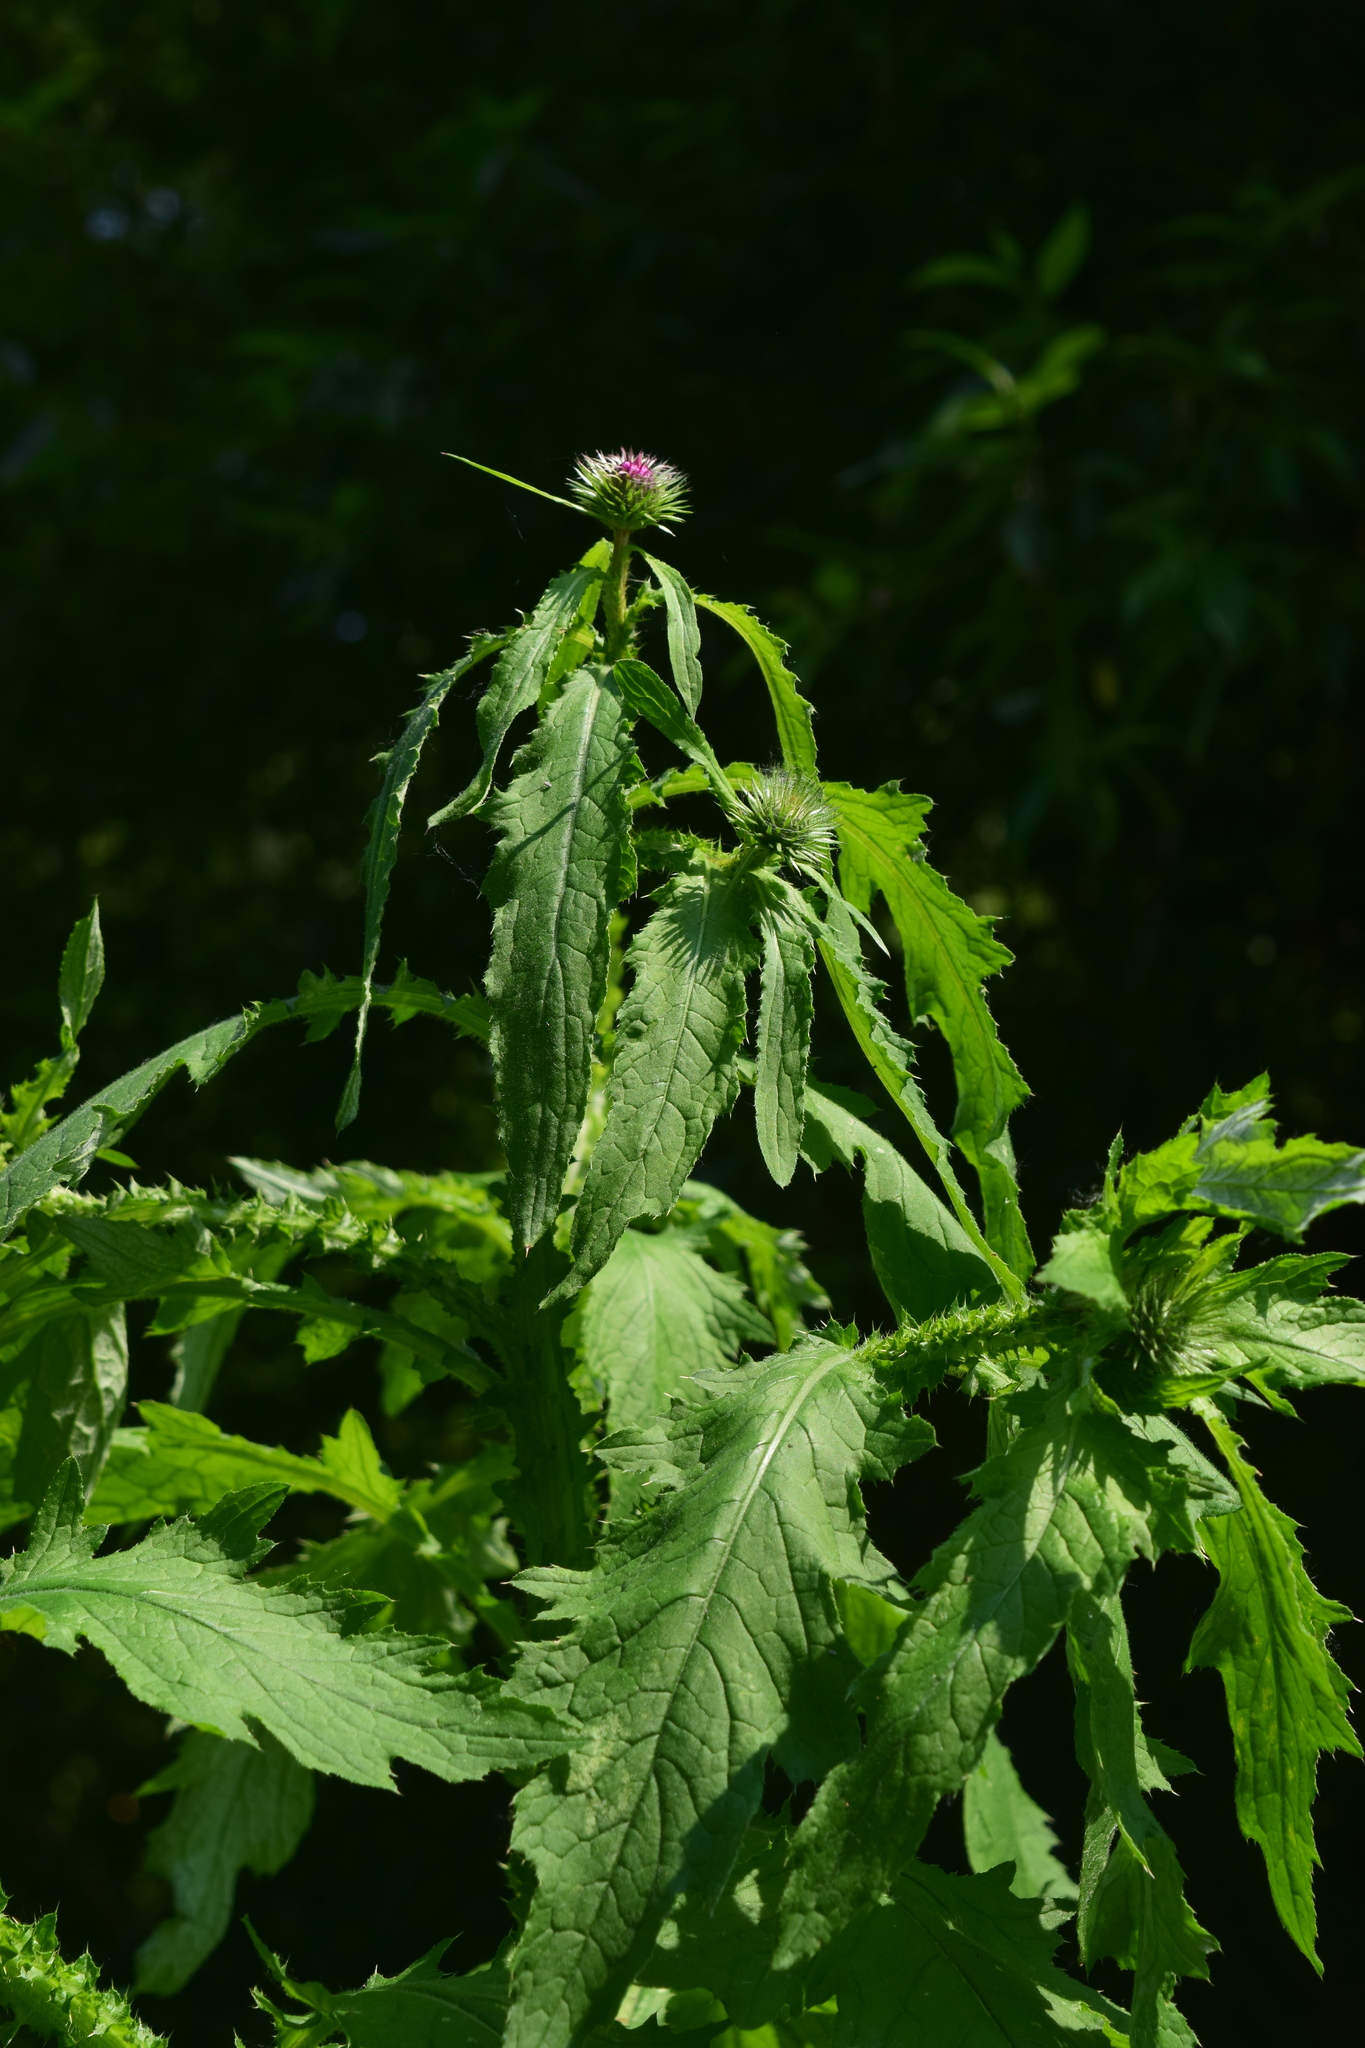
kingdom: Plantae
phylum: Tracheophyta
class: Magnoliopsida
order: Asterales
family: Asteraceae
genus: Carduus
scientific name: Carduus crispus
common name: Welted thistle
